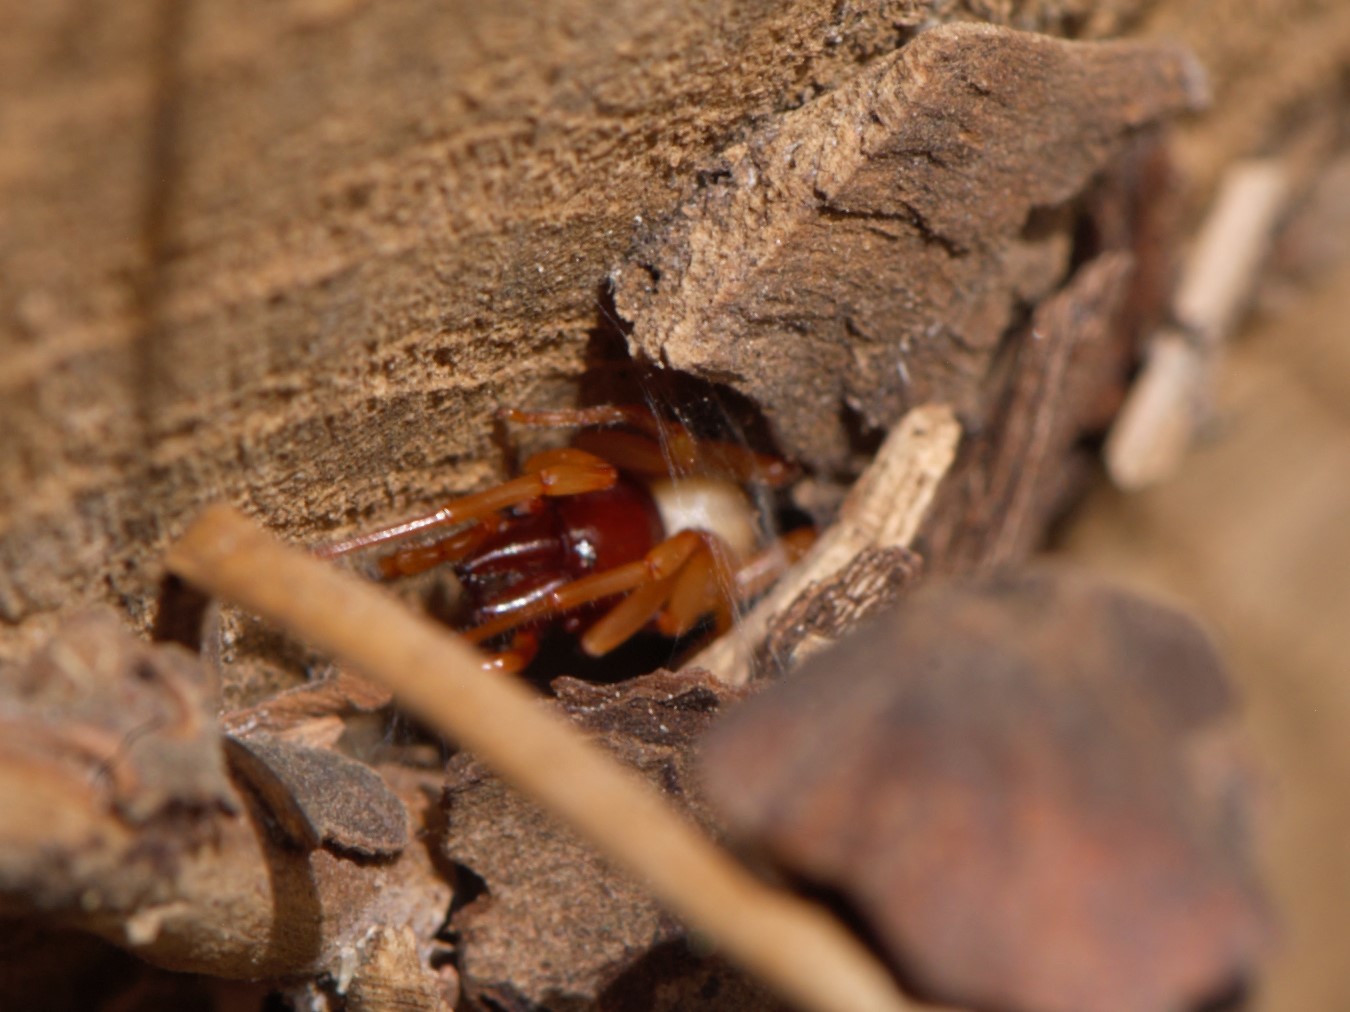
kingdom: Animalia
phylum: Arthropoda
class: Arachnida
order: Araneae
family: Dysderidae
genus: Dysdera
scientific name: Dysdera crocata
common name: Woodlouse spider
